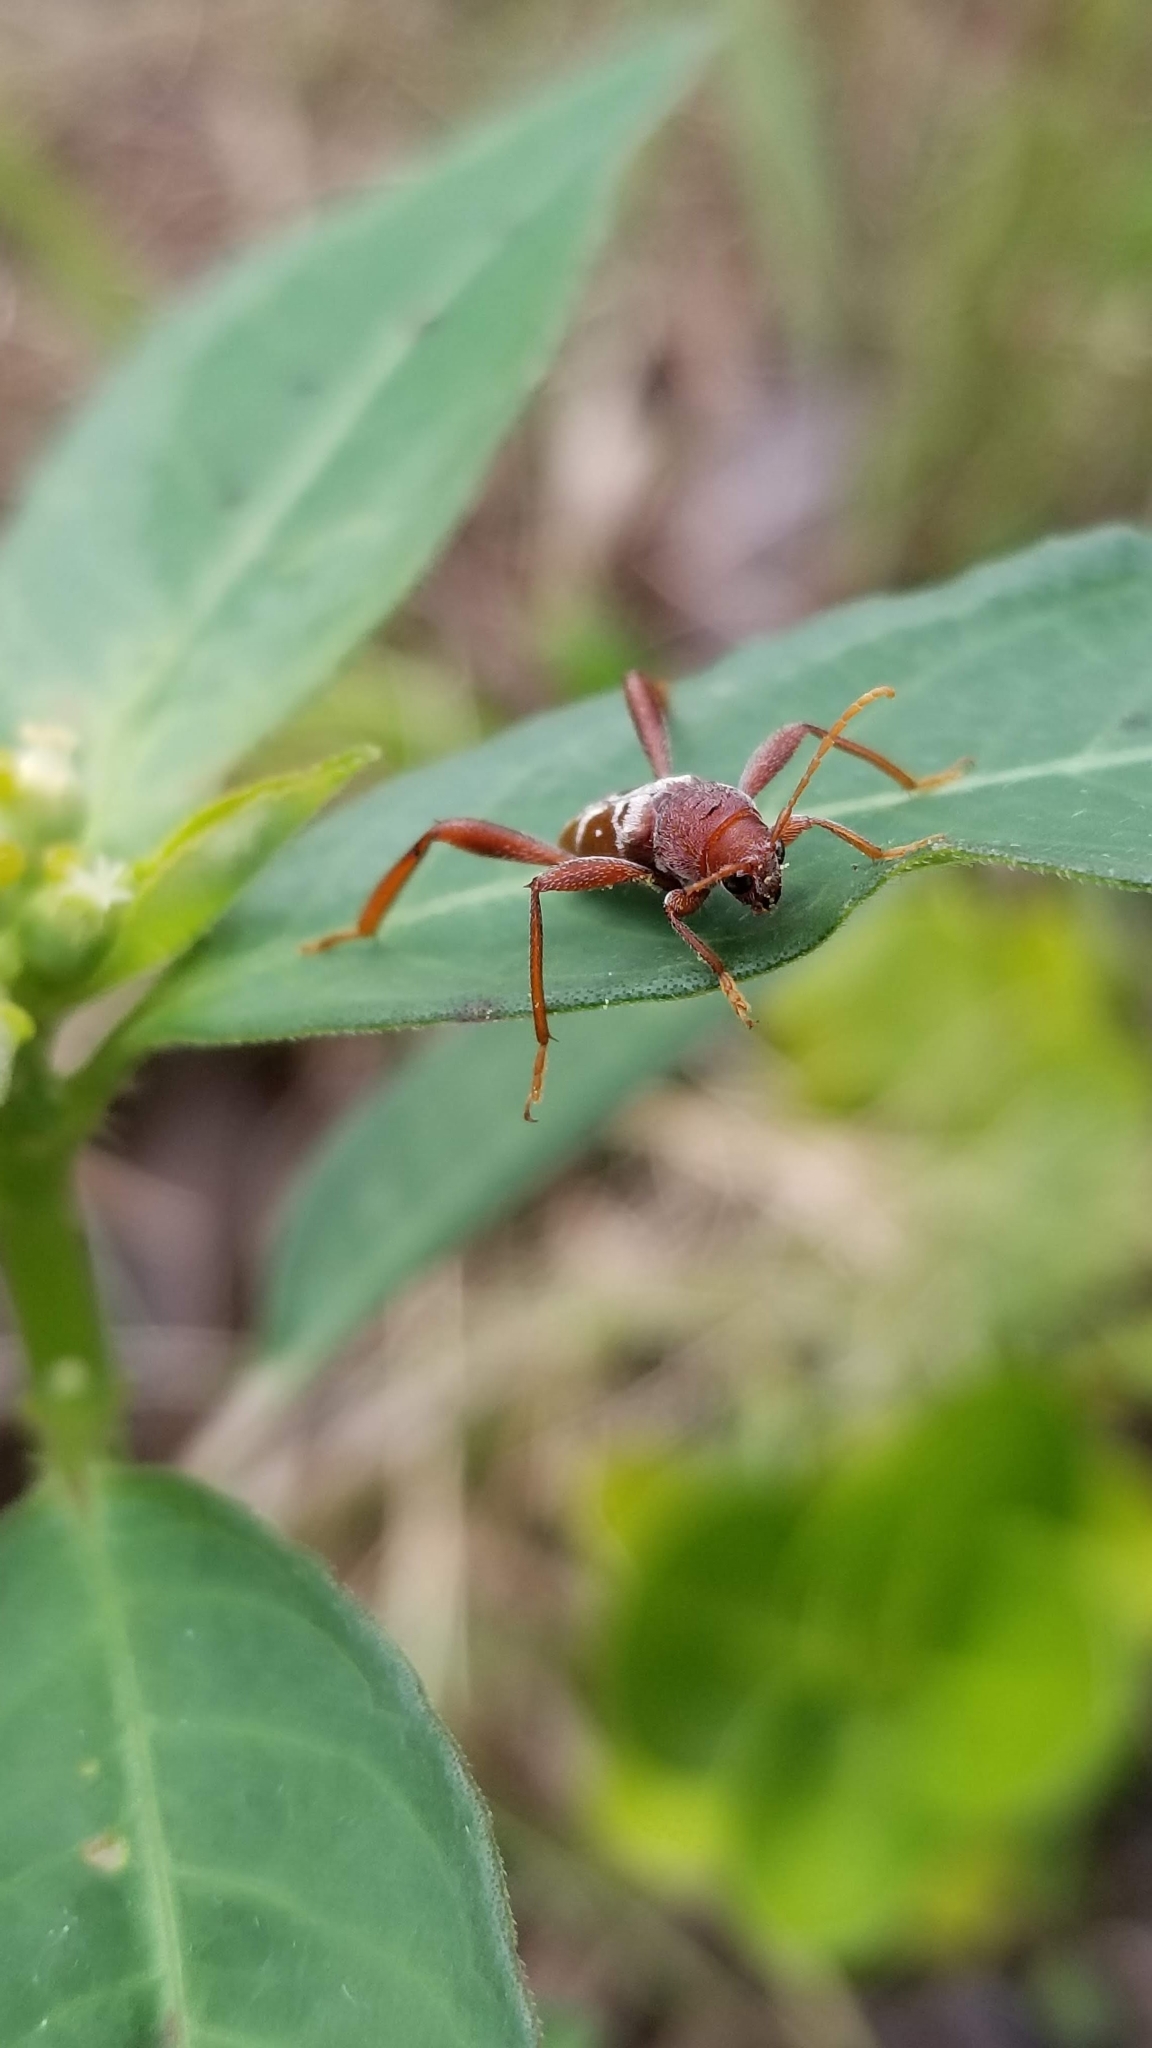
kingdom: Animalia
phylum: Arthropoda
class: Insecta
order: Coleoptera
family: Cerambycidae
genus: Neoclytus
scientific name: Neoclytus senilis
